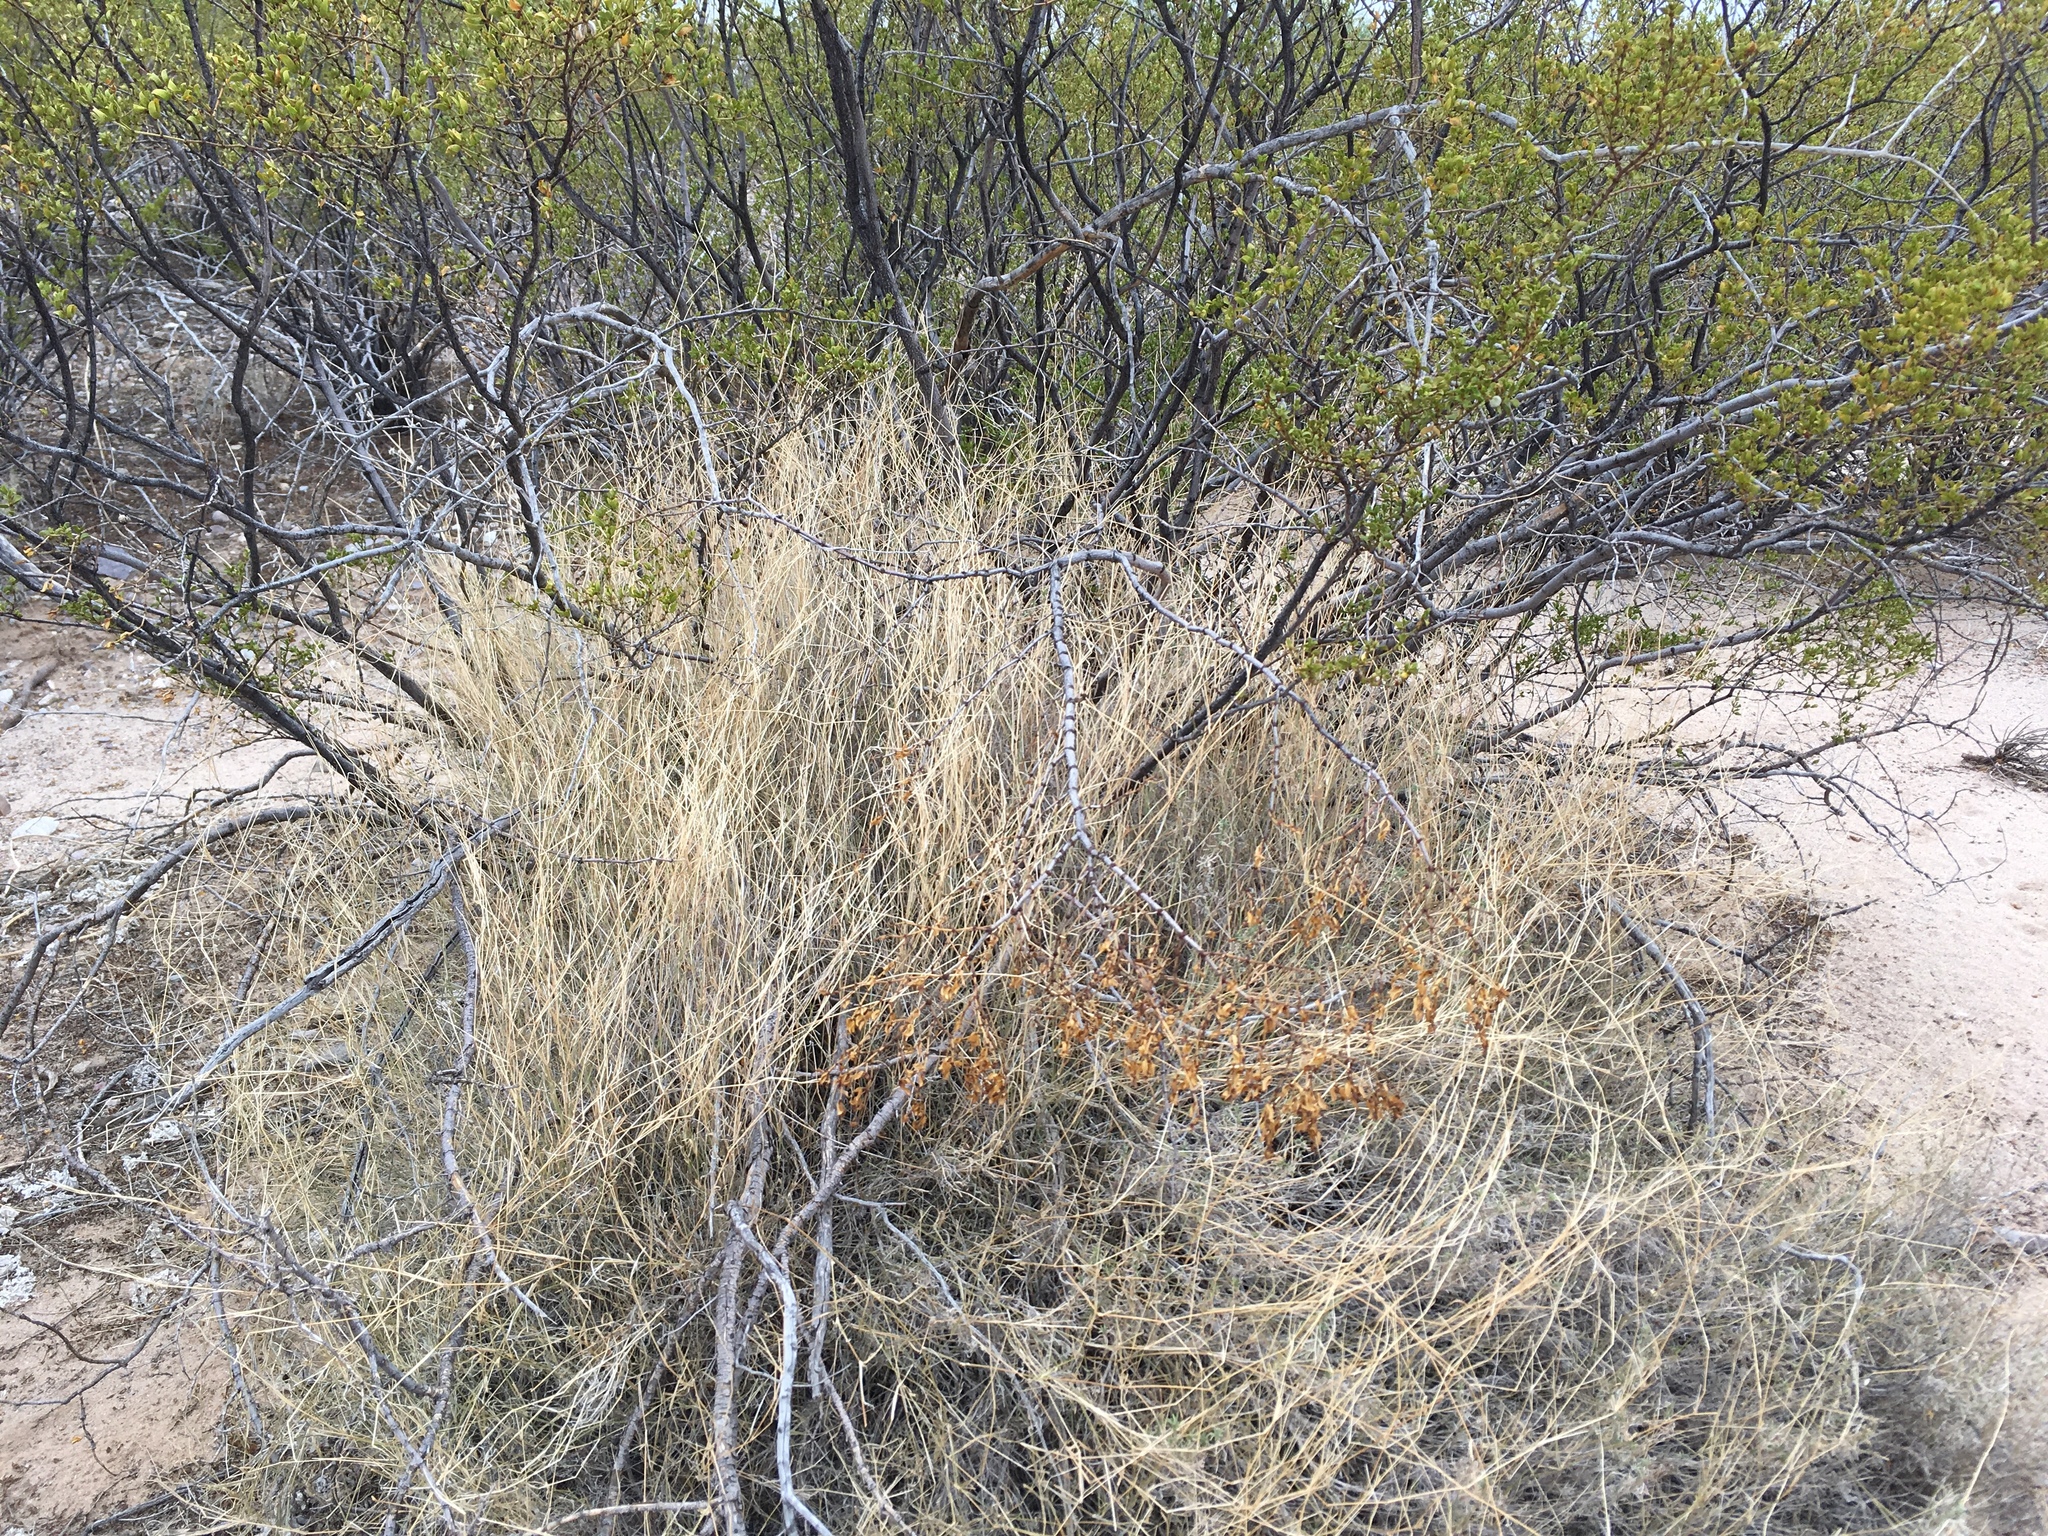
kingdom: Plantae
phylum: Tracheophyta
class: Liliopsida
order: Poales
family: Poaceae
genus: Muhlenbergia
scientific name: Muhlenbergia porteri
